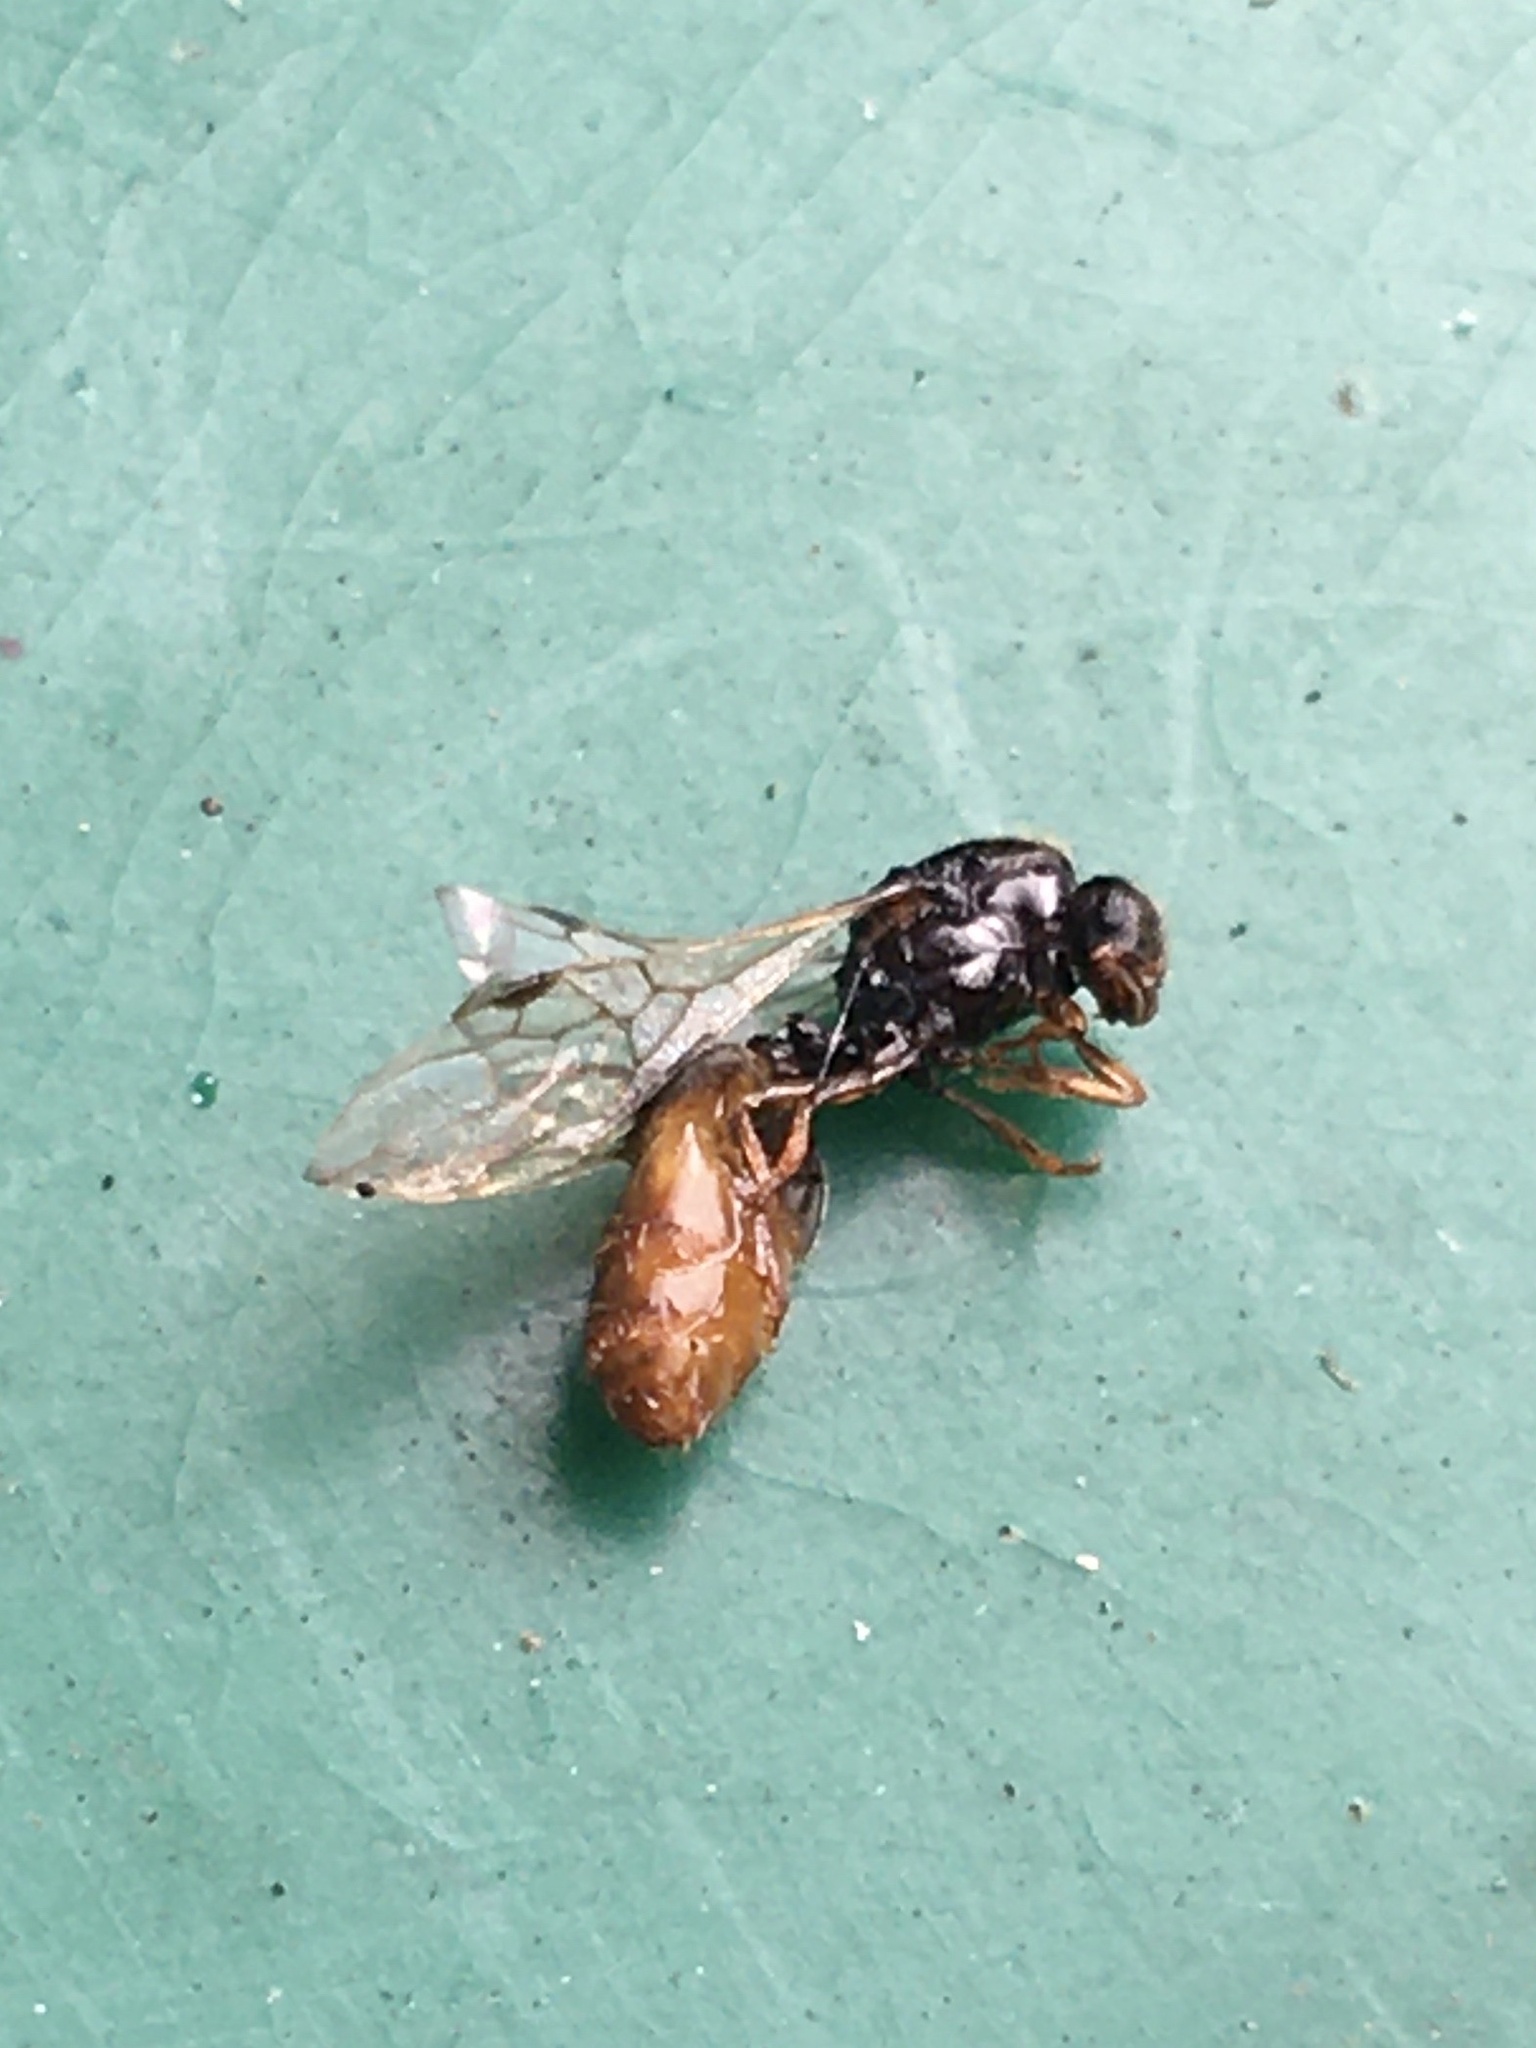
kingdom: Animalia
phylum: Arthropoda
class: Insecta
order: Hymenoptera
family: Formicidae
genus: Solenopsis
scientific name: Solenopsis punctaticeps
